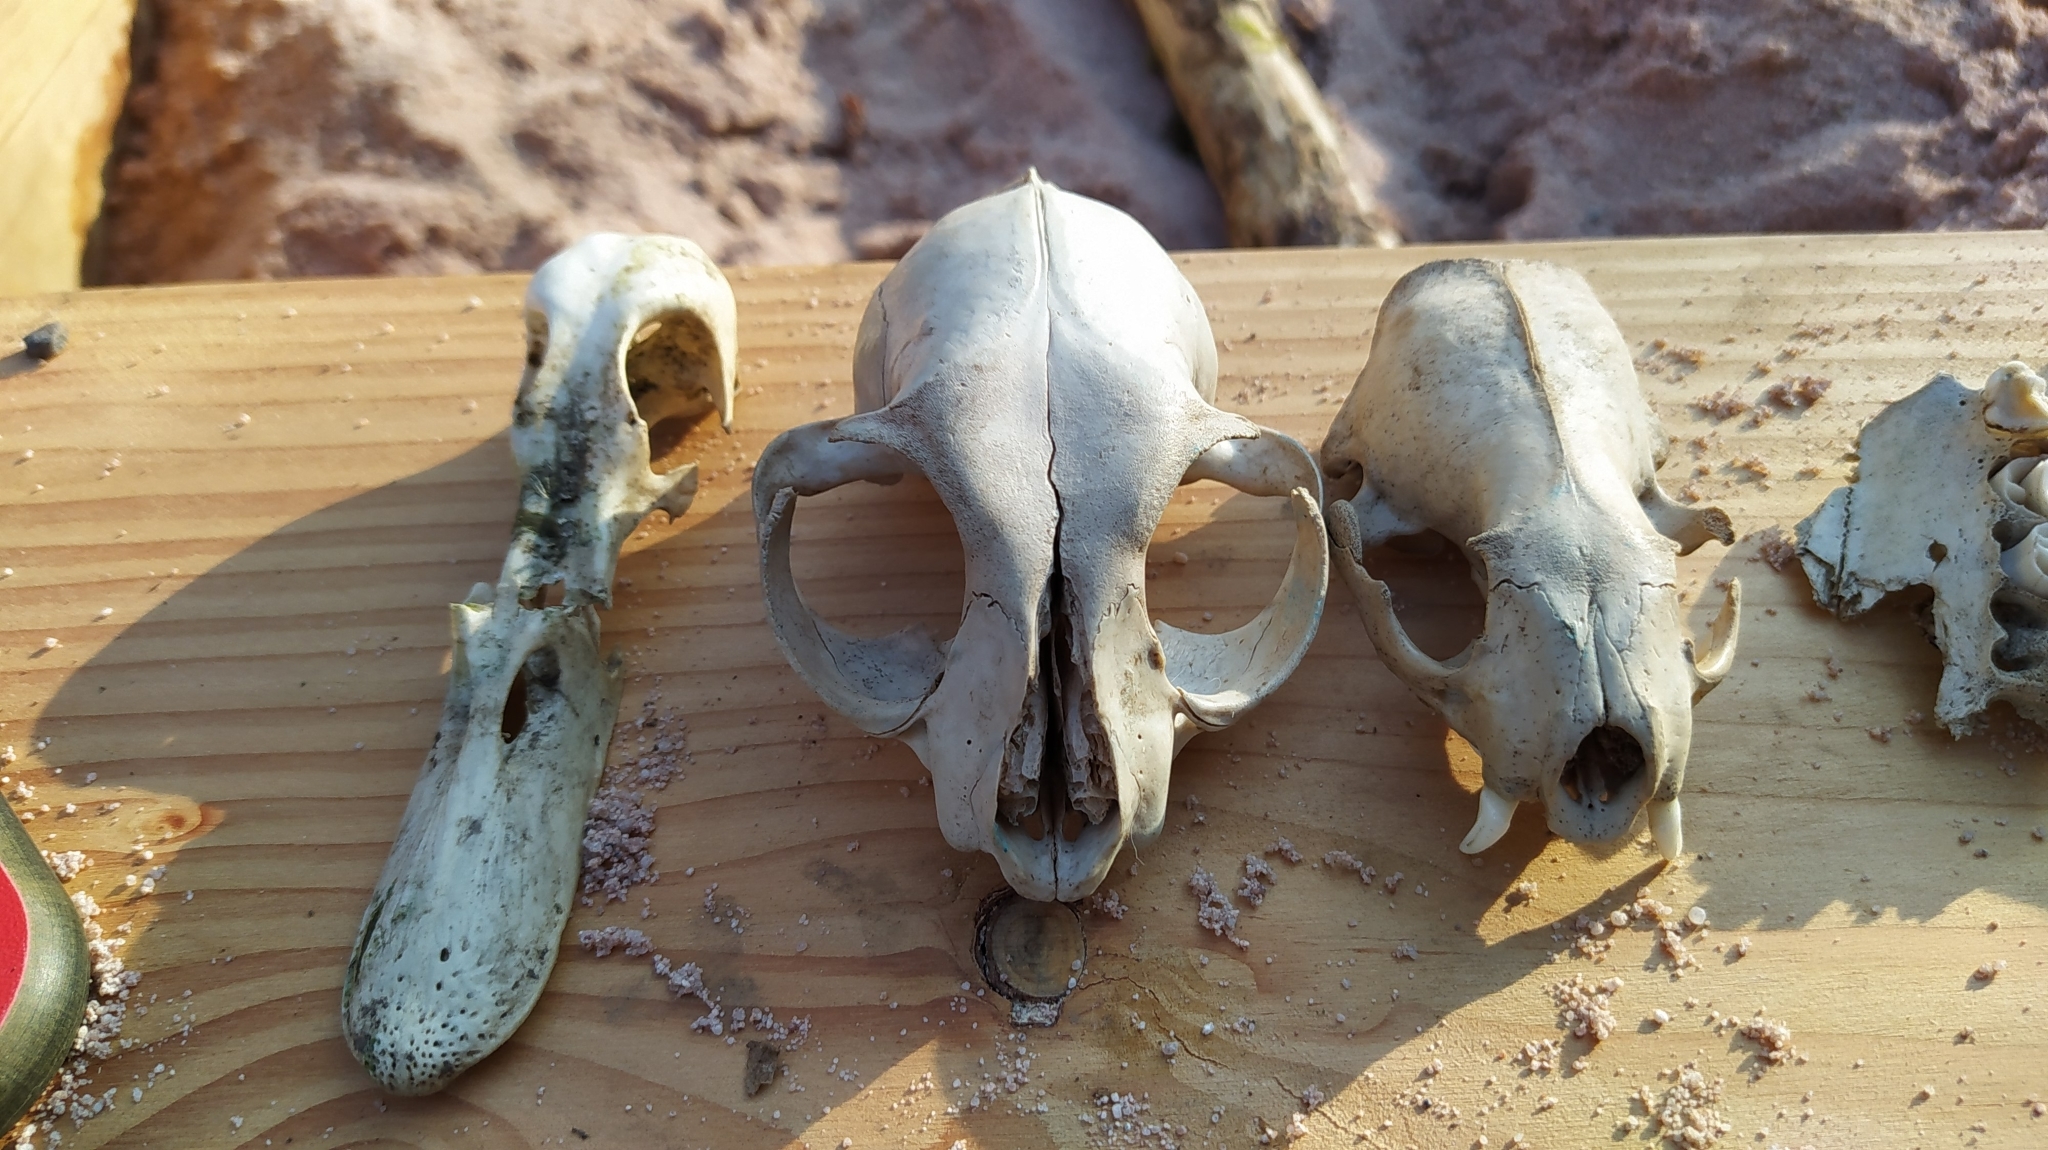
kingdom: Animalia
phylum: Chordata
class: Mammalia
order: Carnivora
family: Mustelidae
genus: Mustela
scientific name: Mustela putorius
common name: European polecat
